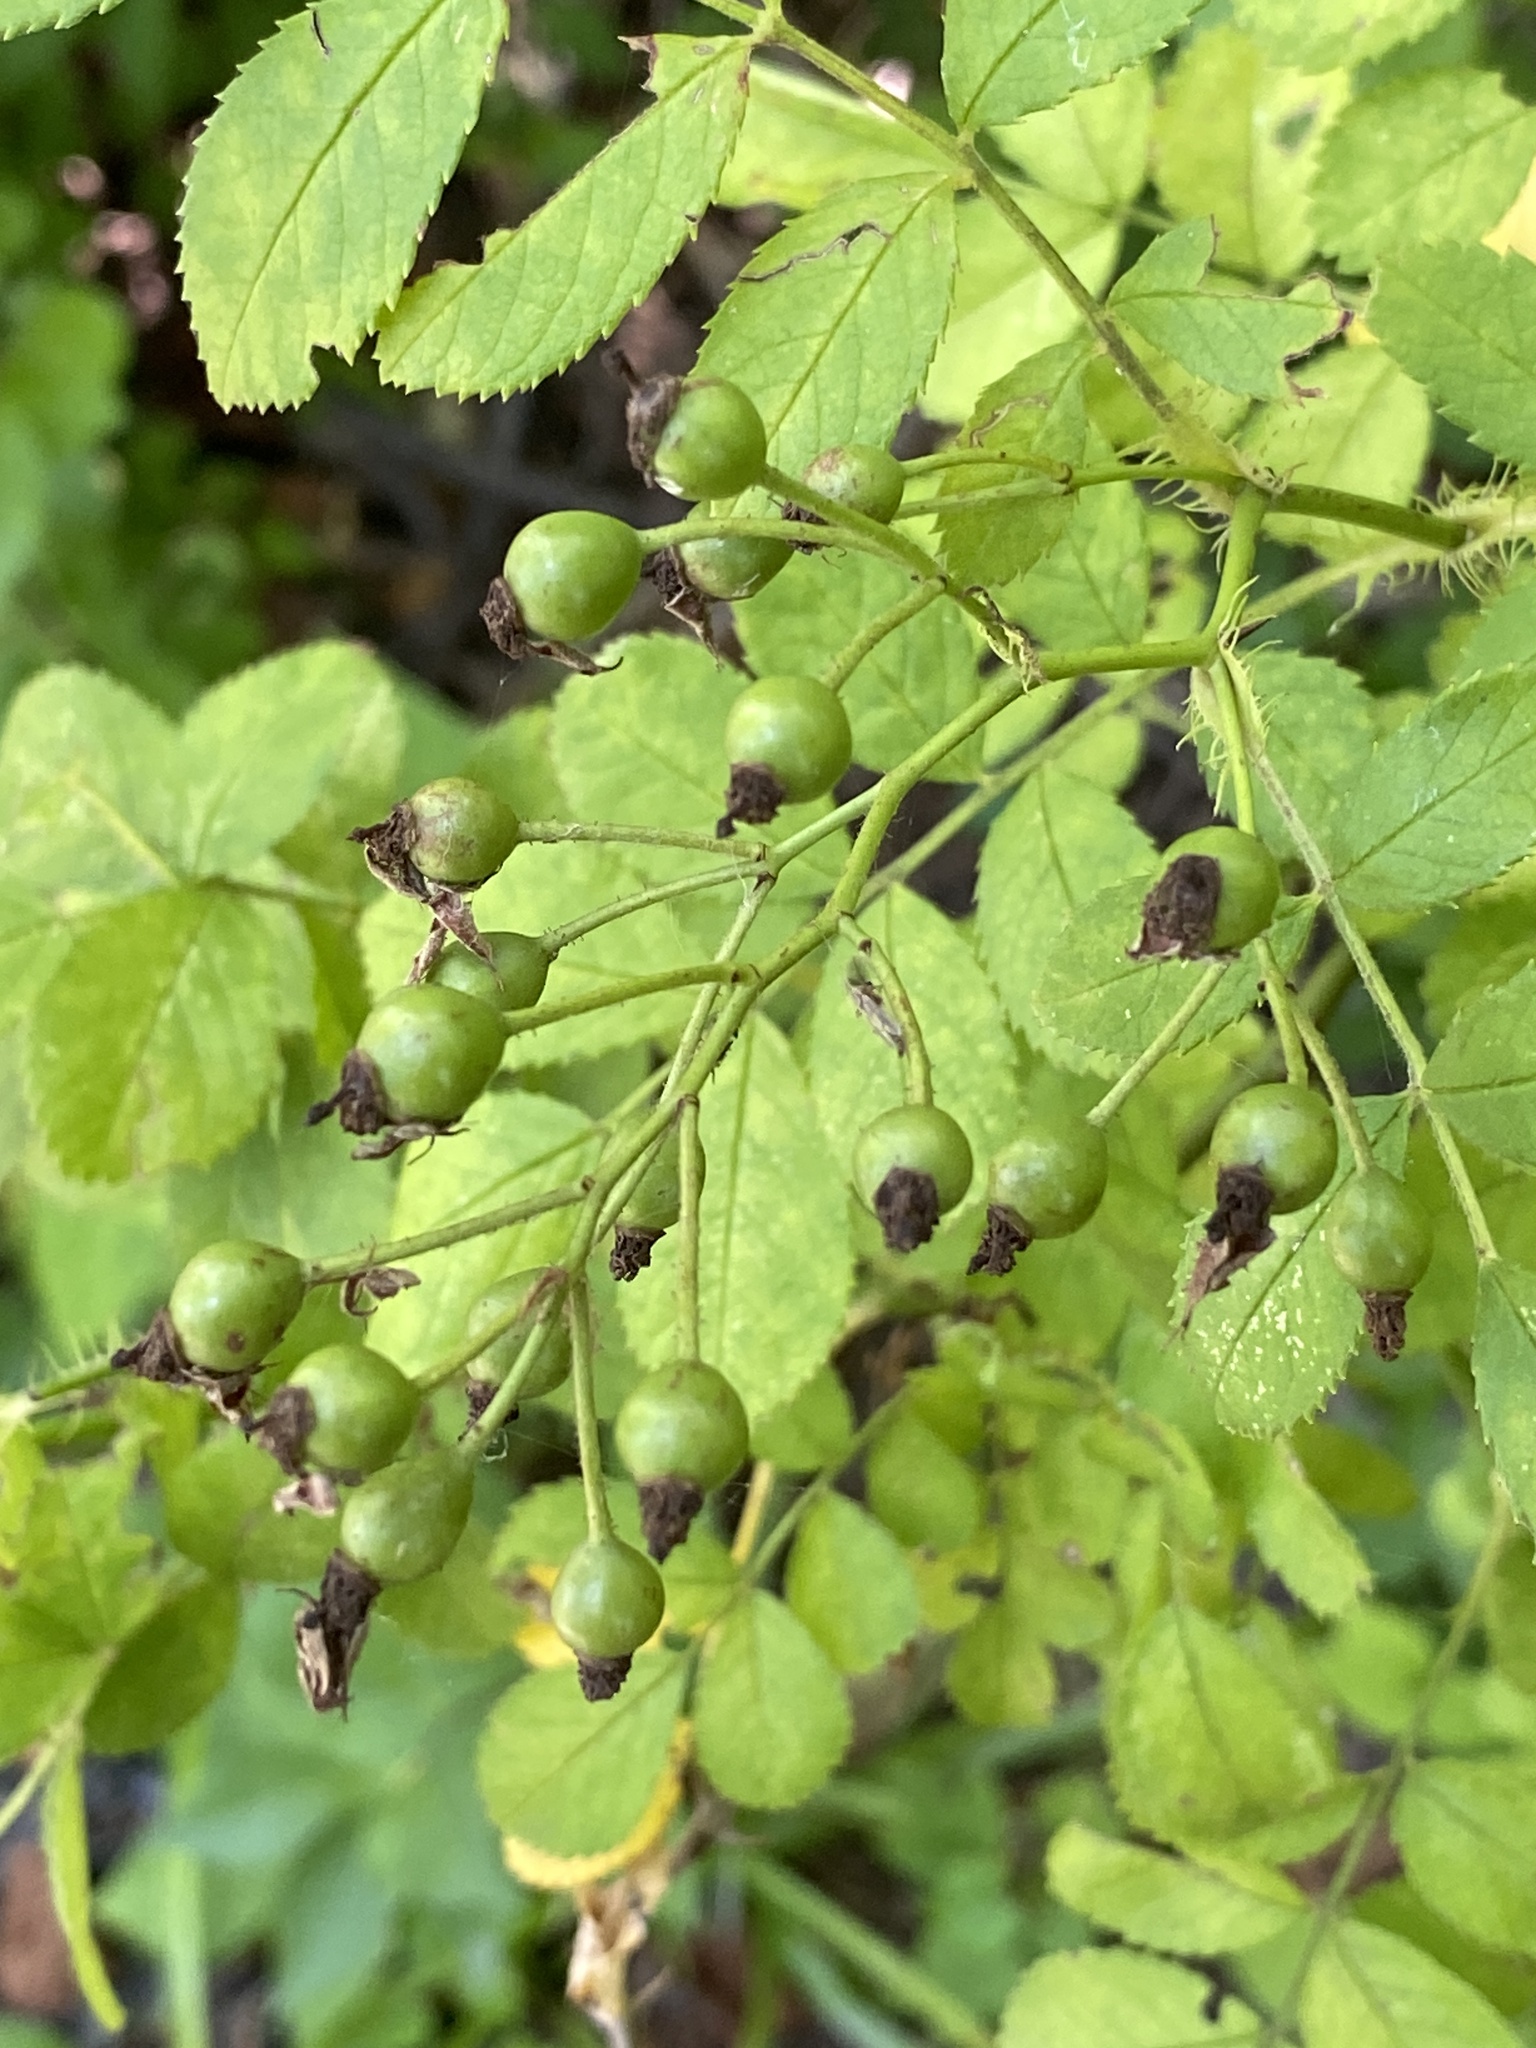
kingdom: Plantae
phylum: Tracheophyta
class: Magnoliopsida
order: Rosales
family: Rosaceae
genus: Rosa
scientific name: Rosa multiflora
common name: Multiflora rose
